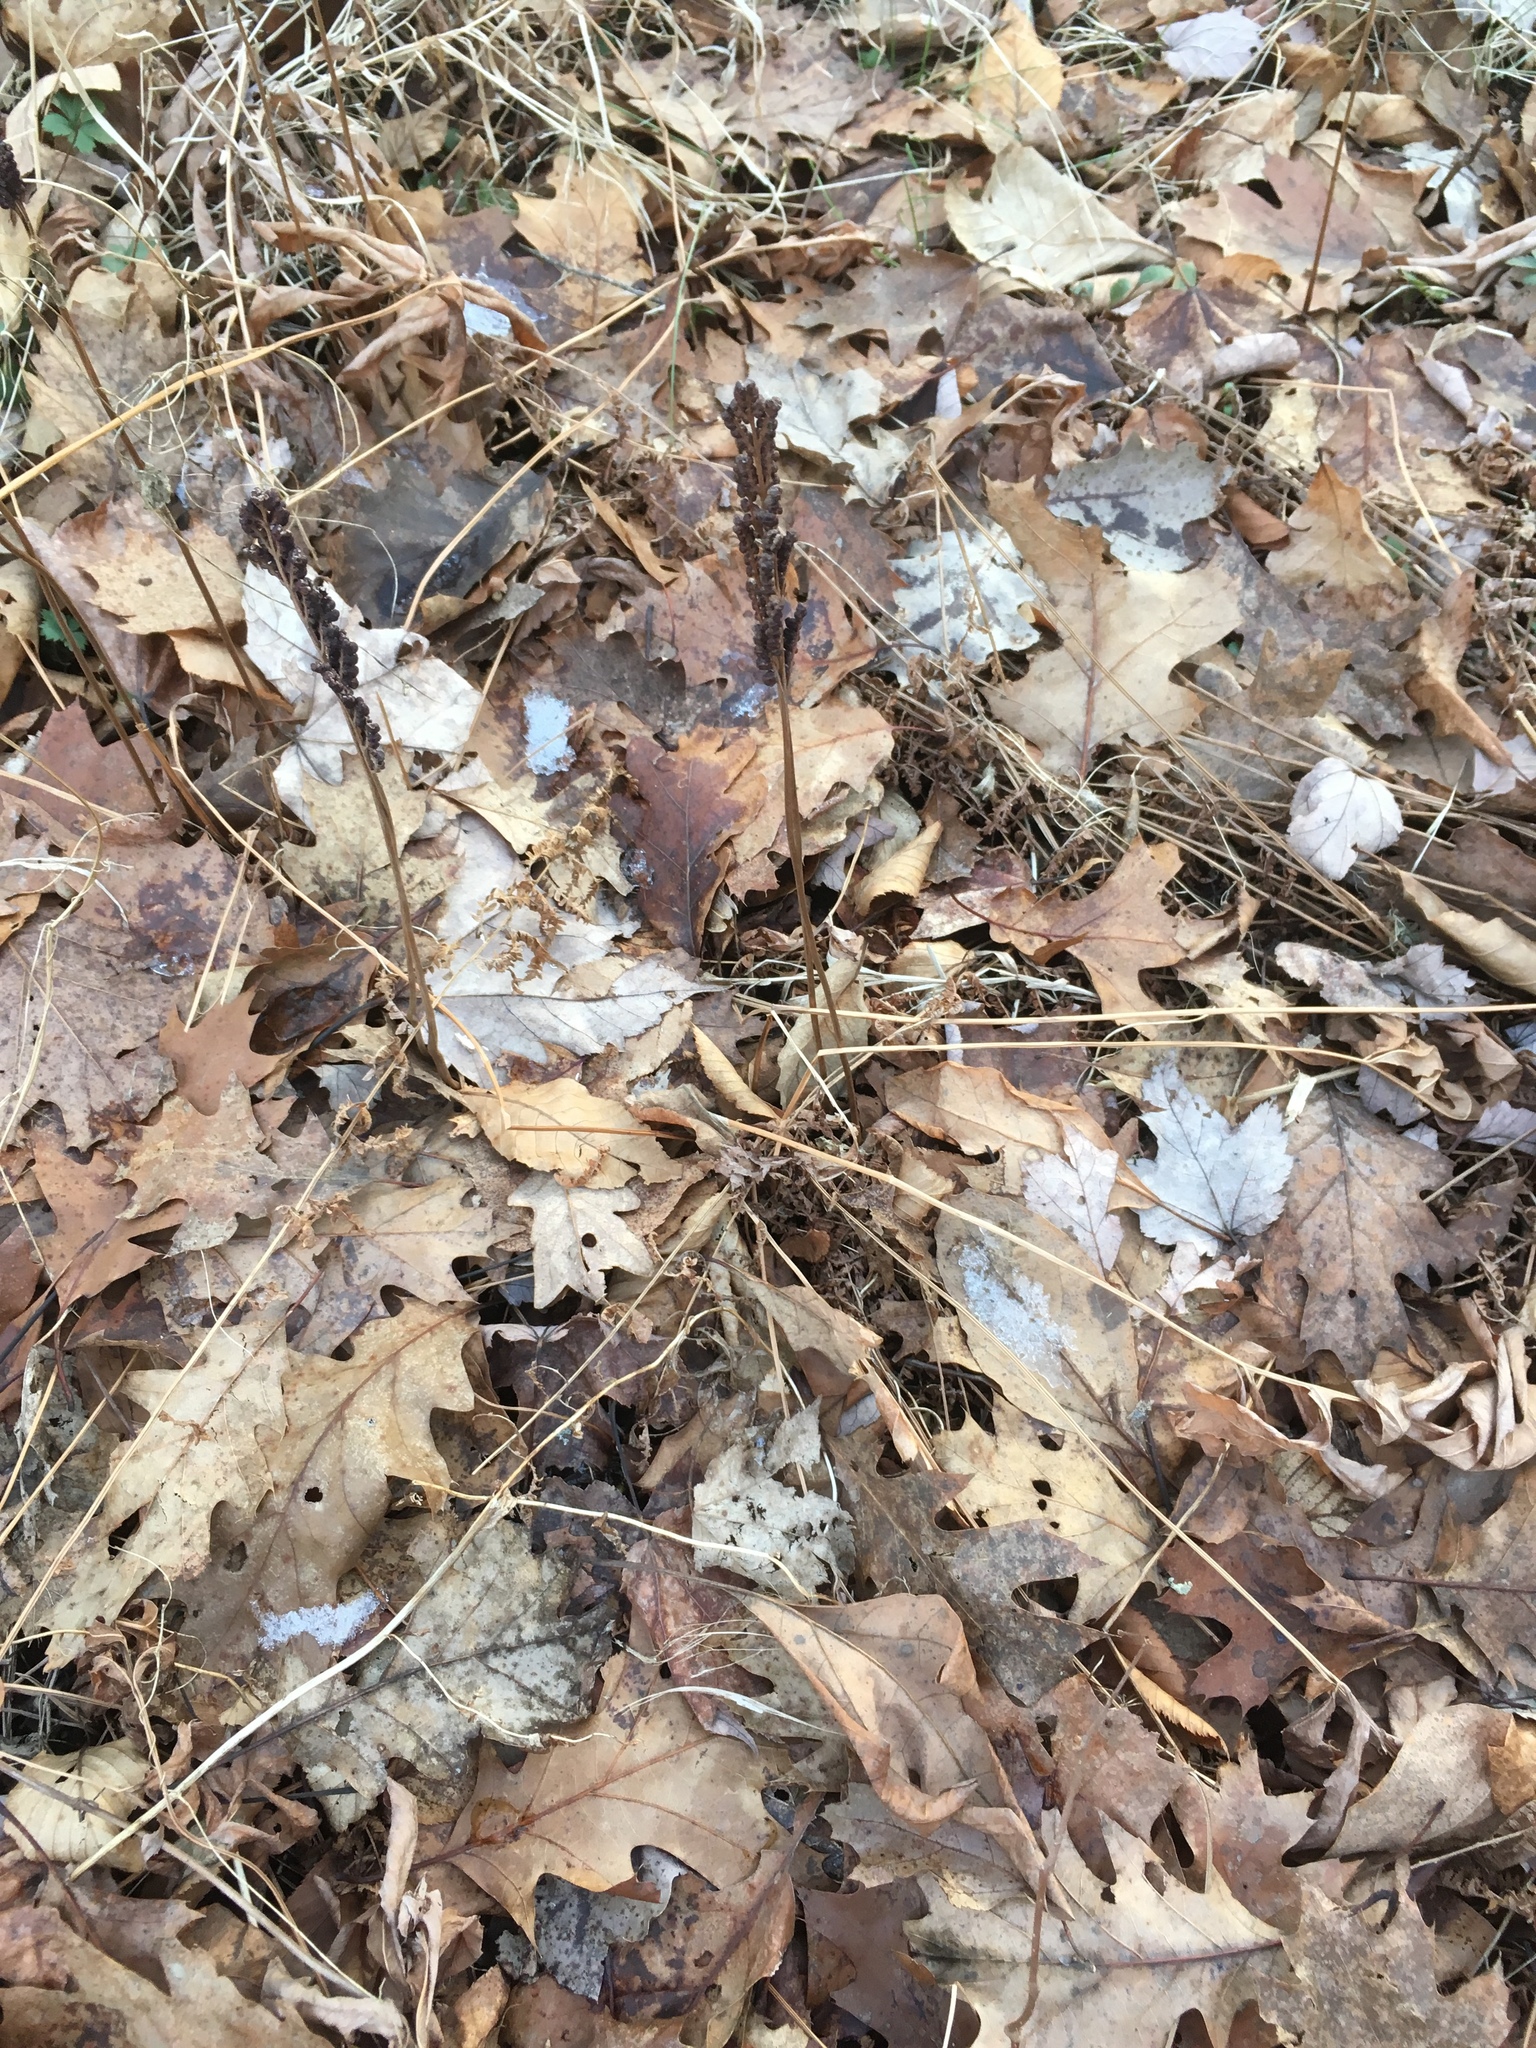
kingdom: Plantae
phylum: Tracheophyta
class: Polypodiopsida
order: Polypodiales
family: Onocleaceae
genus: Onoclea
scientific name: Onoclea sensibilis
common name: Sensitive fern
